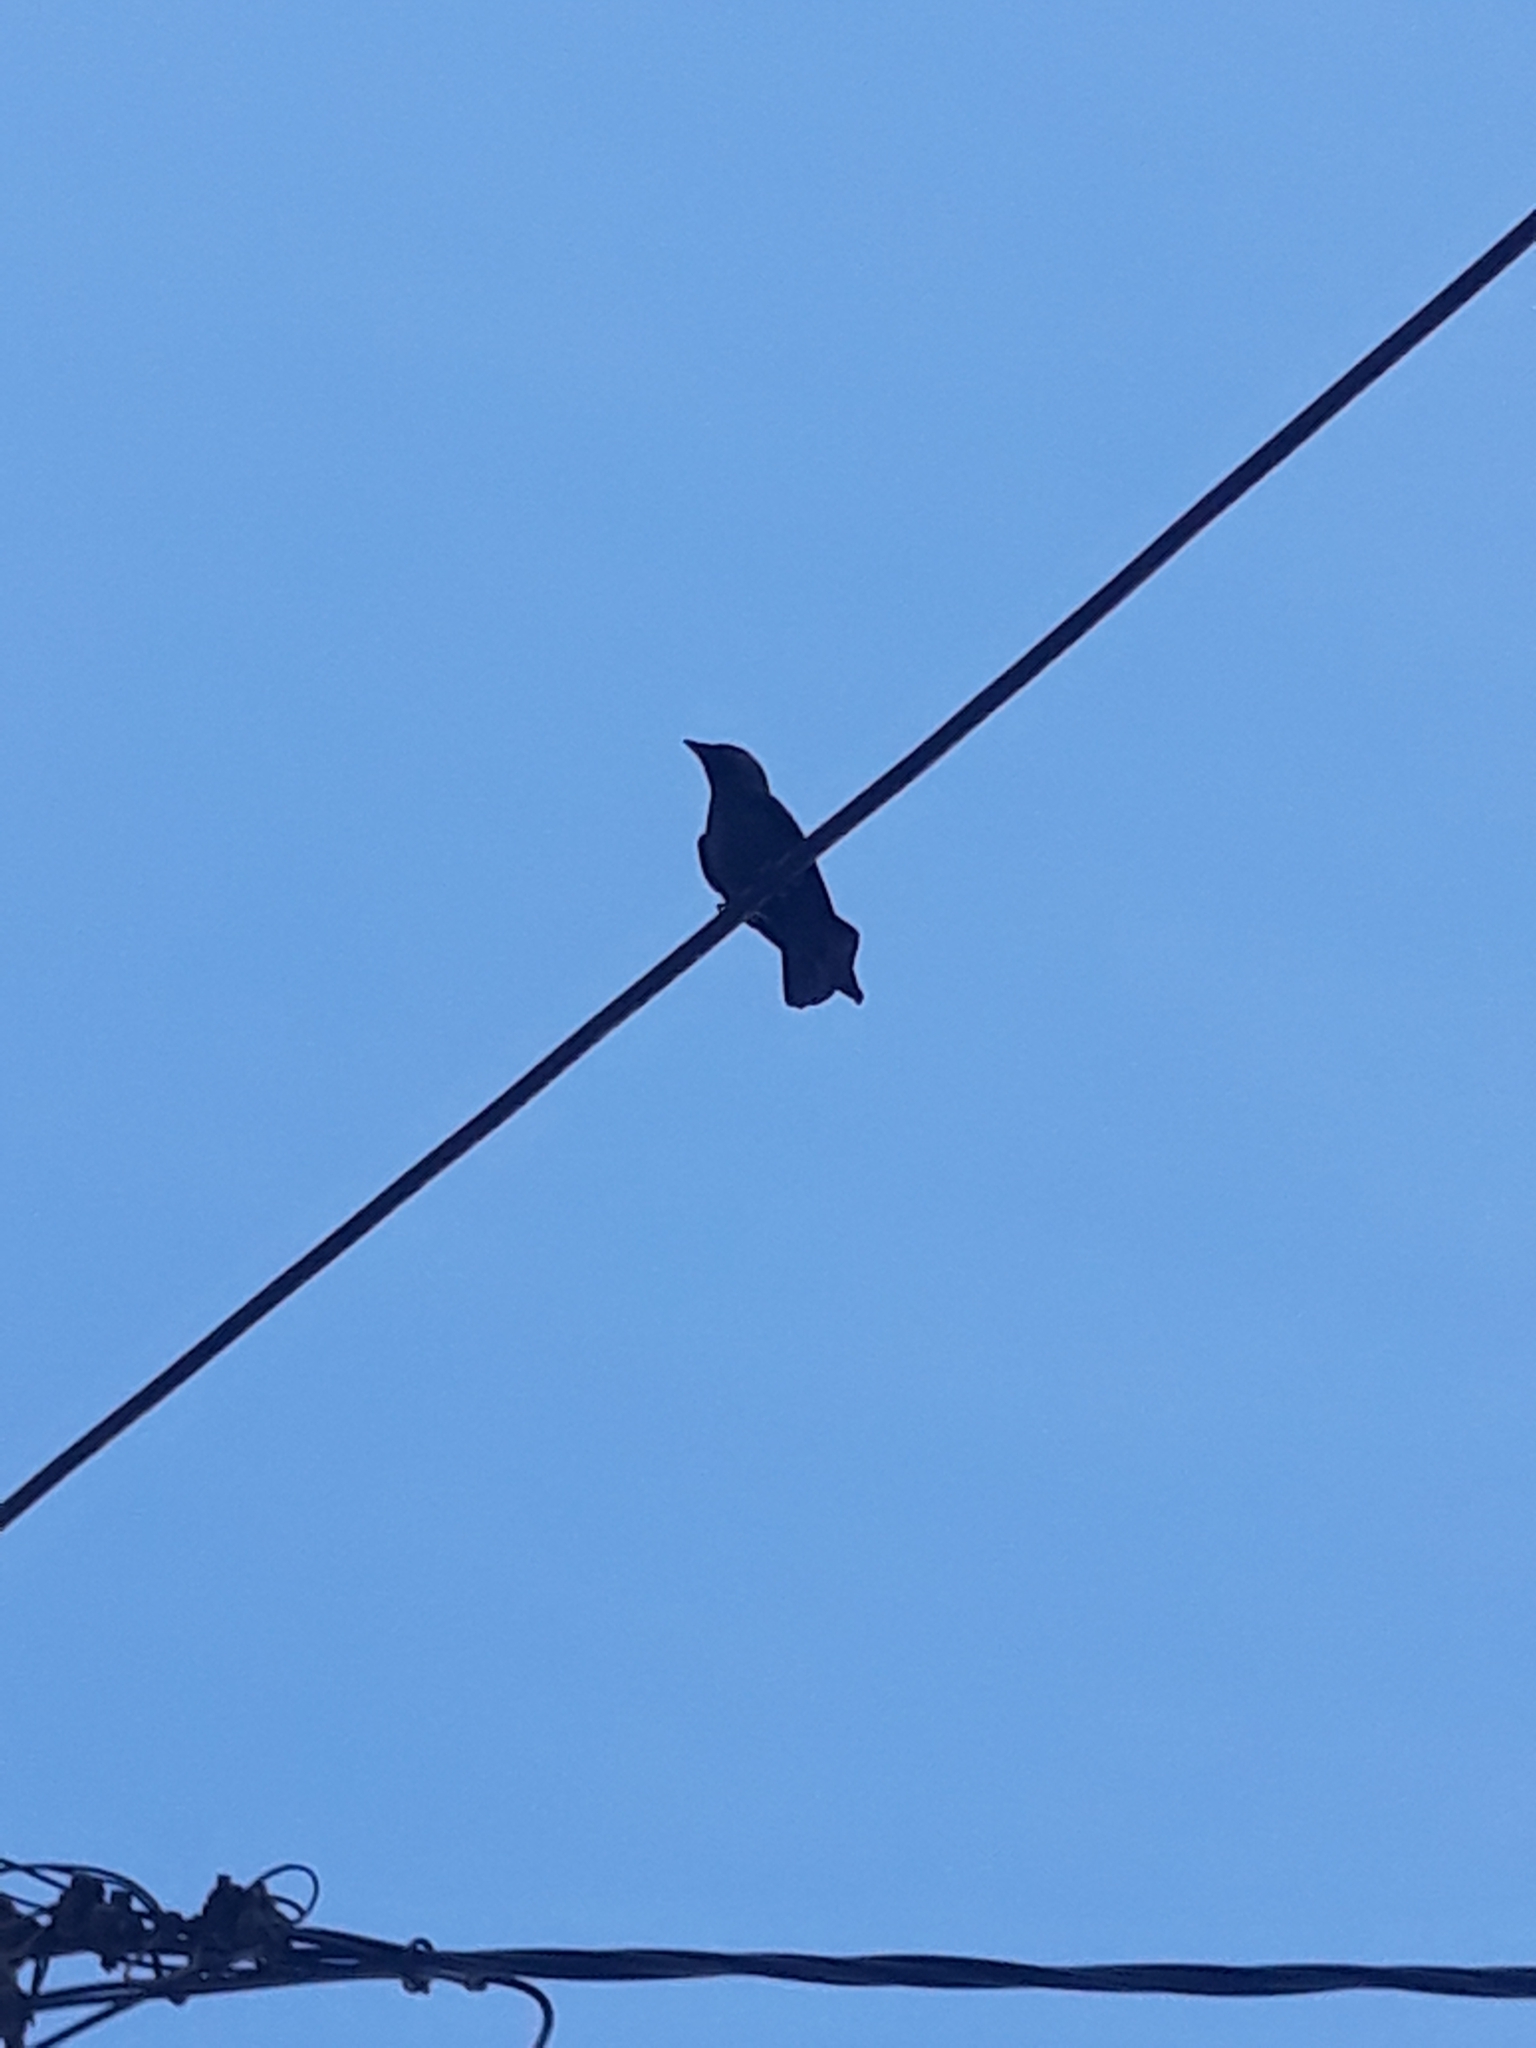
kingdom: Animalia
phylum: Chordata
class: Aves
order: Passeriformes
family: Corvidae
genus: Coloeus
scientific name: Coloeus monedula
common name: Western jackdaw
